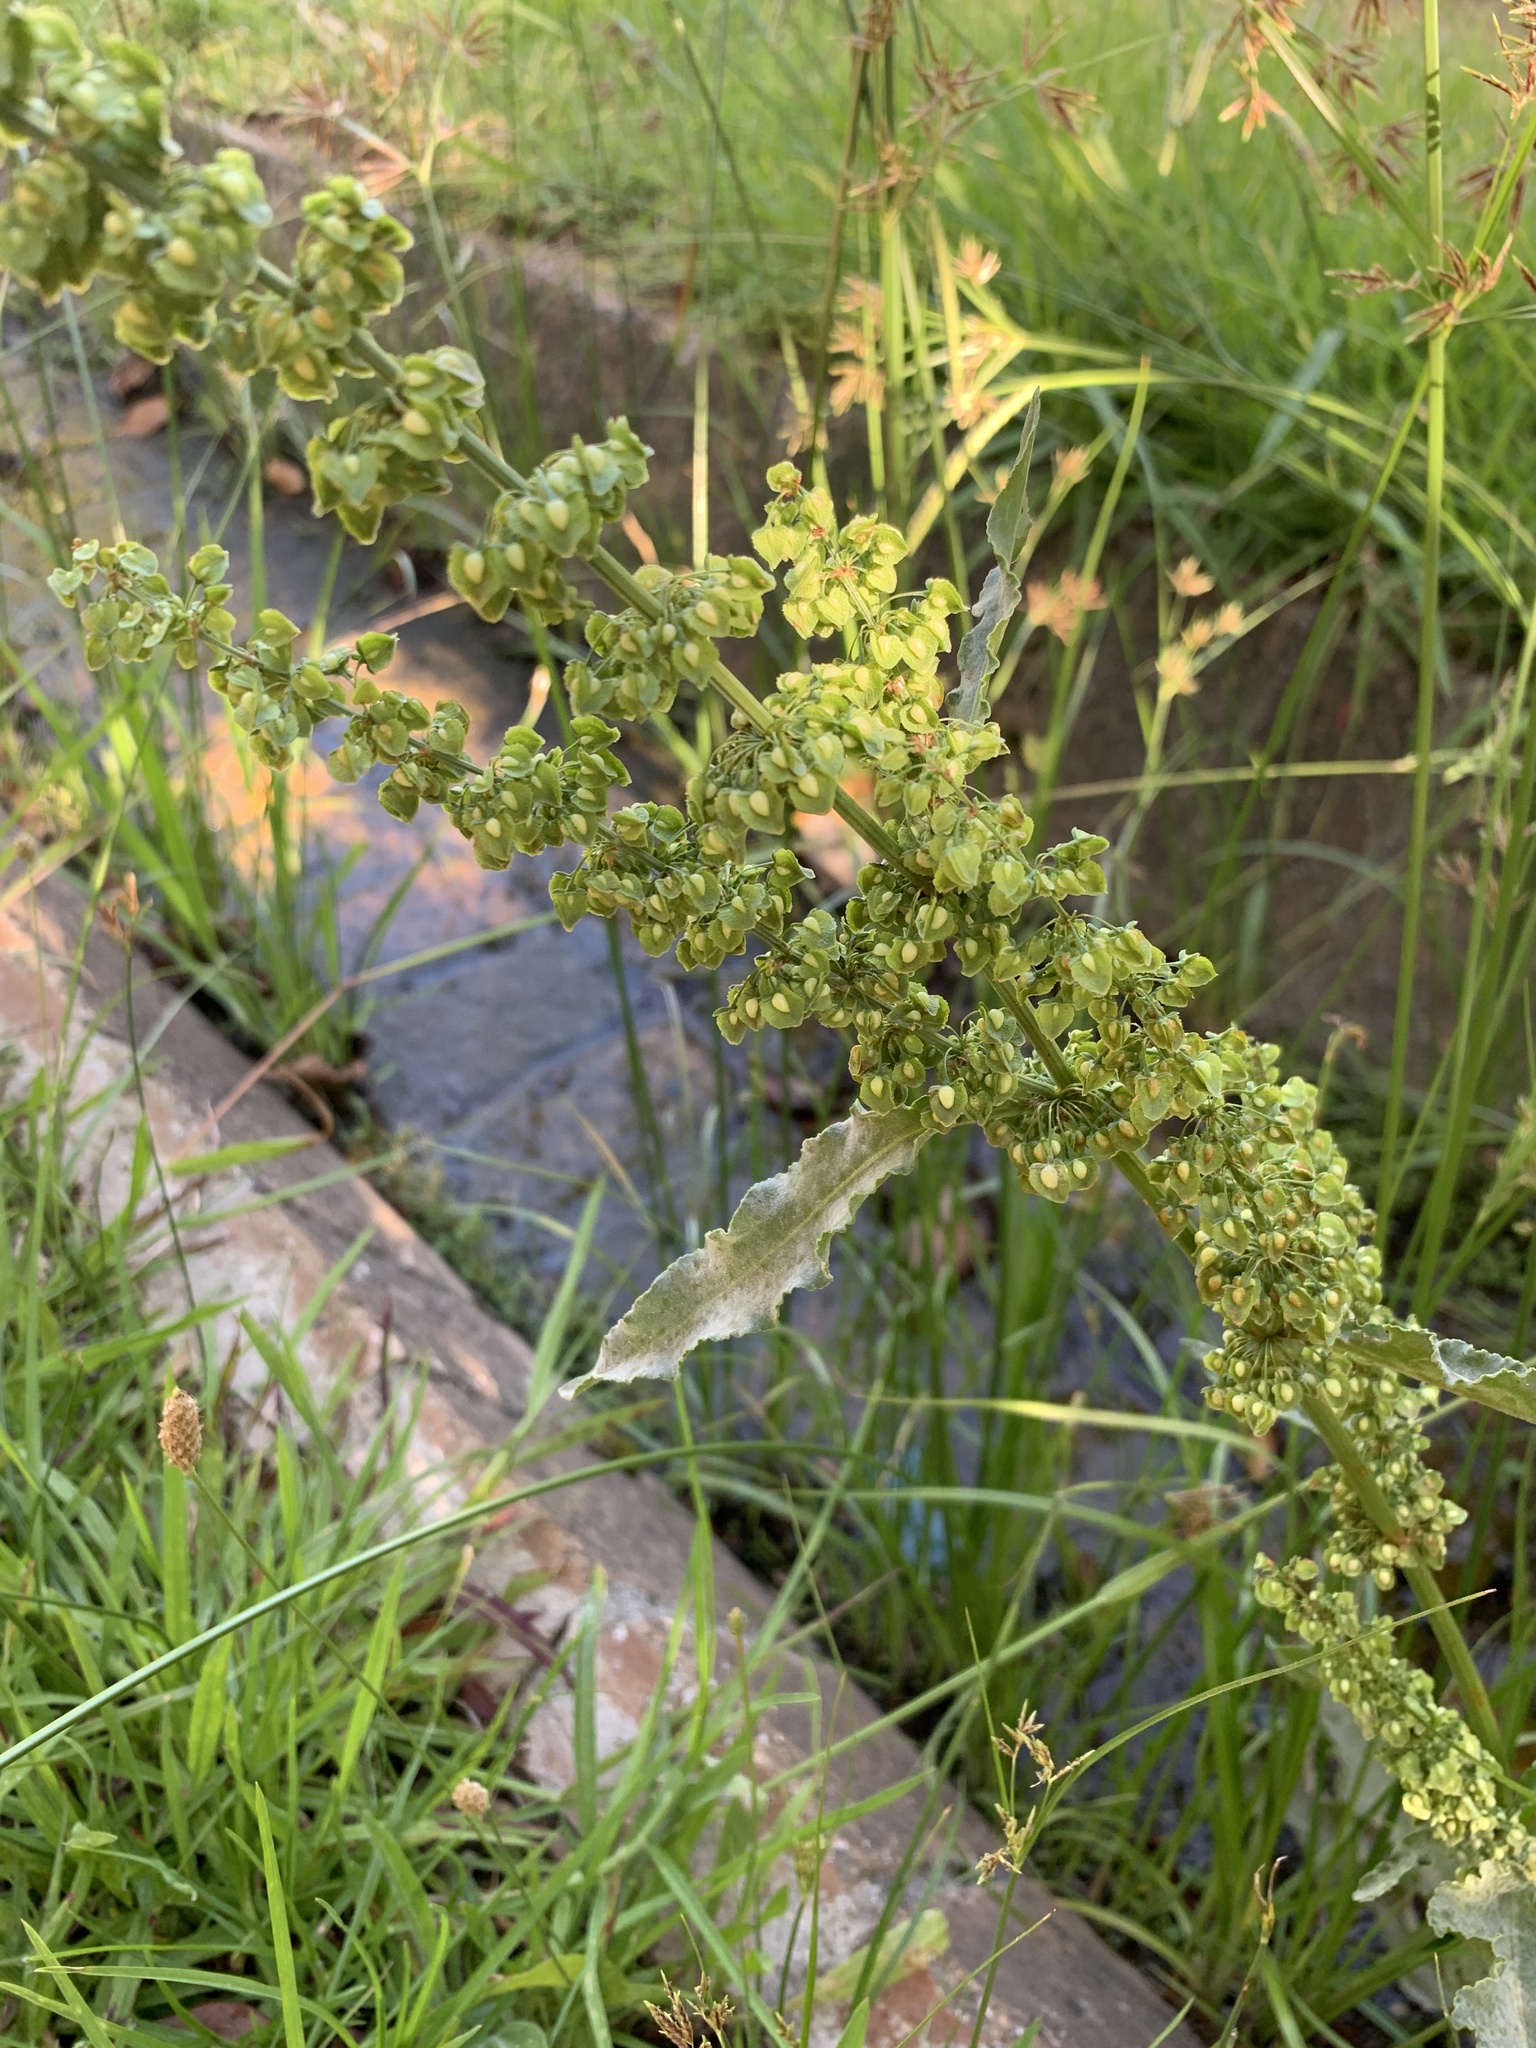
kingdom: Plantae
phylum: Tracheophyta
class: Magnoliopsida
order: Caryophyllales
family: Polygonaceae
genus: Rumex
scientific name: Rumex crispus
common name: Curled dock
